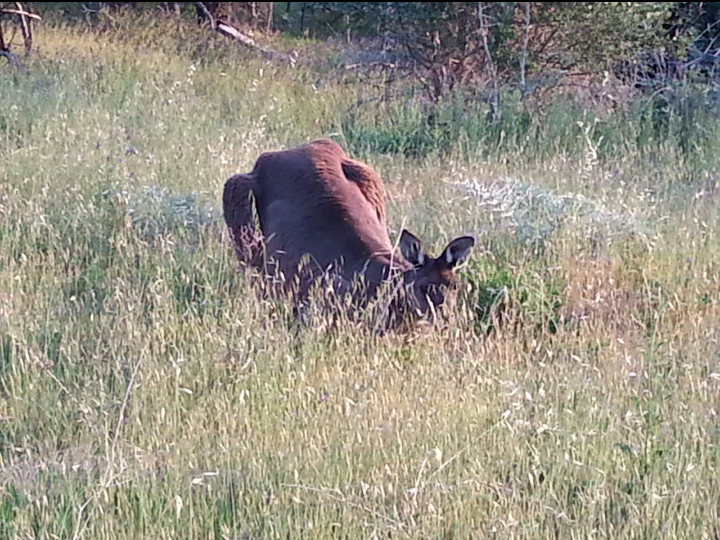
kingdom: Animalia
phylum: Chordata
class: Mammalia
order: Diprotodontia
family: Macropodidae
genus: Macropus
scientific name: Macropus fuliginosus
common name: Western grey kangaroo
